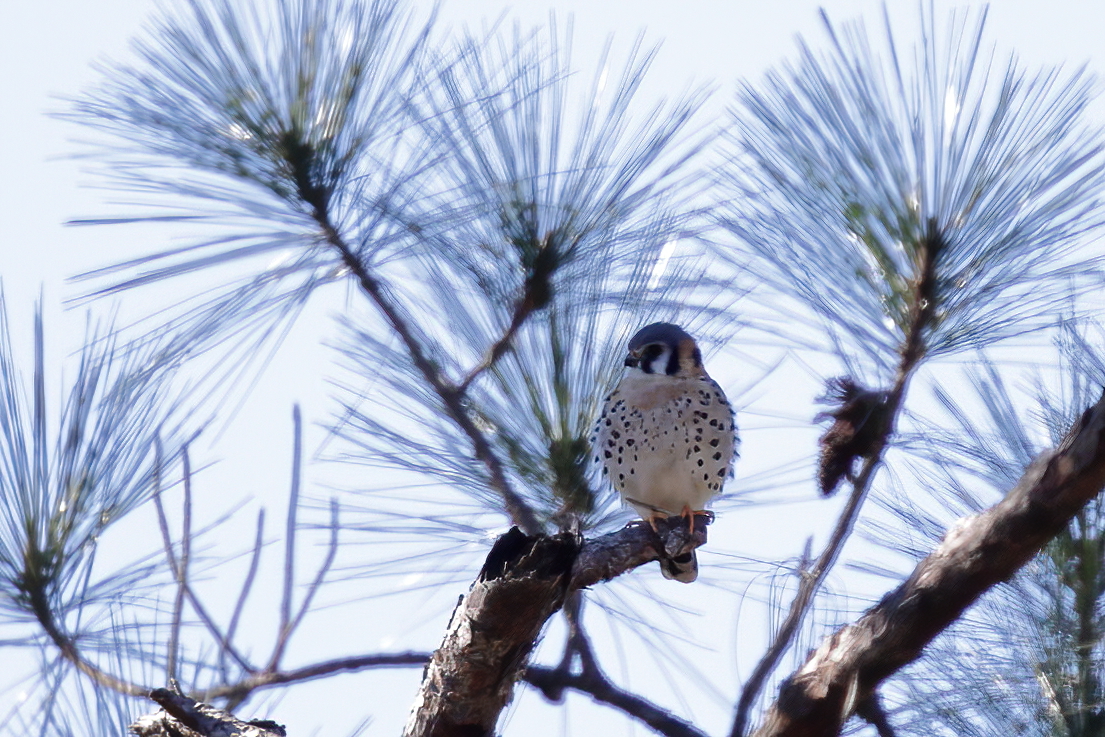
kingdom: Animalia
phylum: Chordata
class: Aves
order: Falconiformes
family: Falconidae
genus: Falco
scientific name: Falco sparverius
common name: American kestrel
